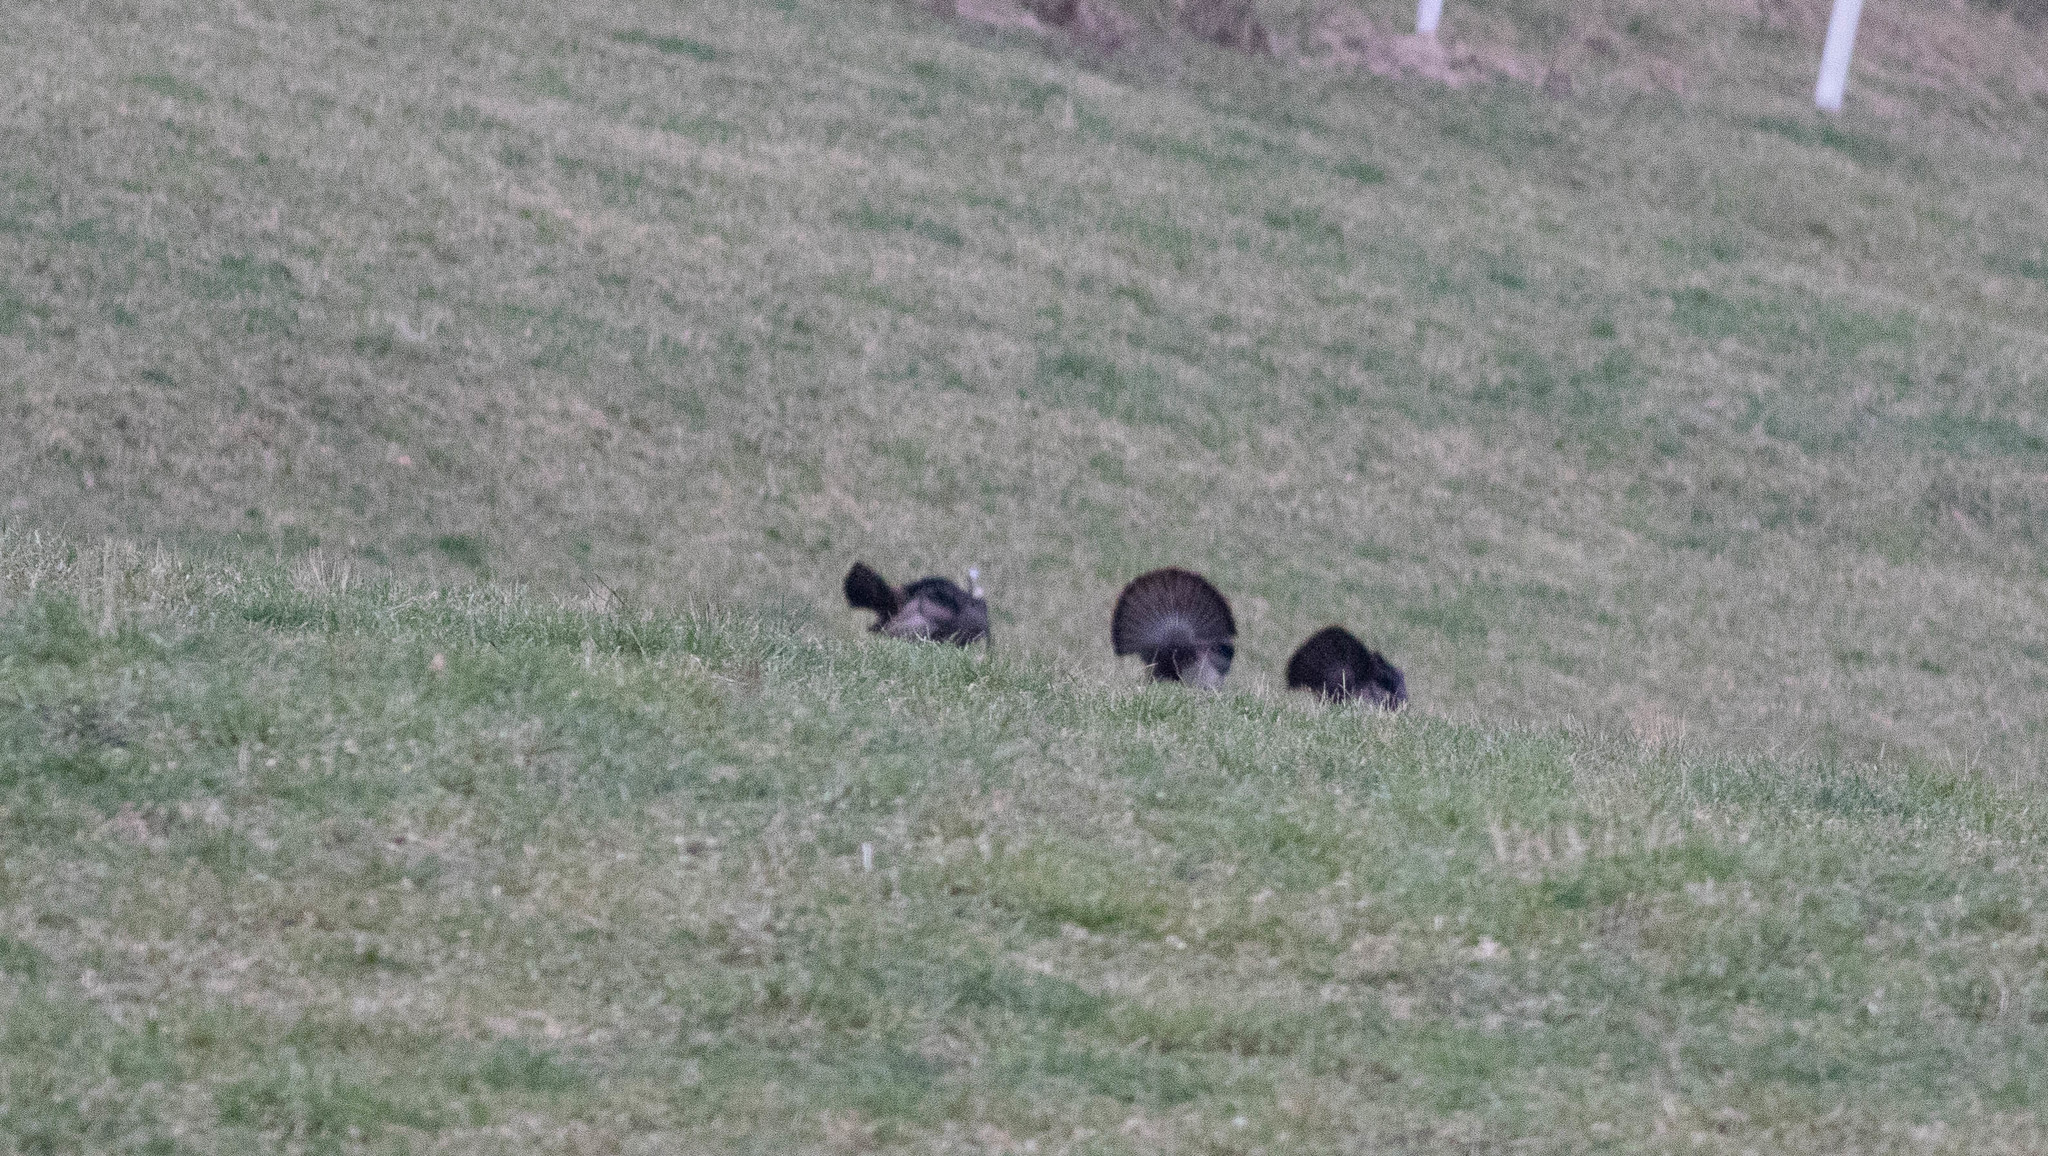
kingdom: Animalia
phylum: Chordata
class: Aves
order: Galliformes
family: Phasianidae
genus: Meleagris
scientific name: Meleagris gallopavo
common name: Wild turkey
